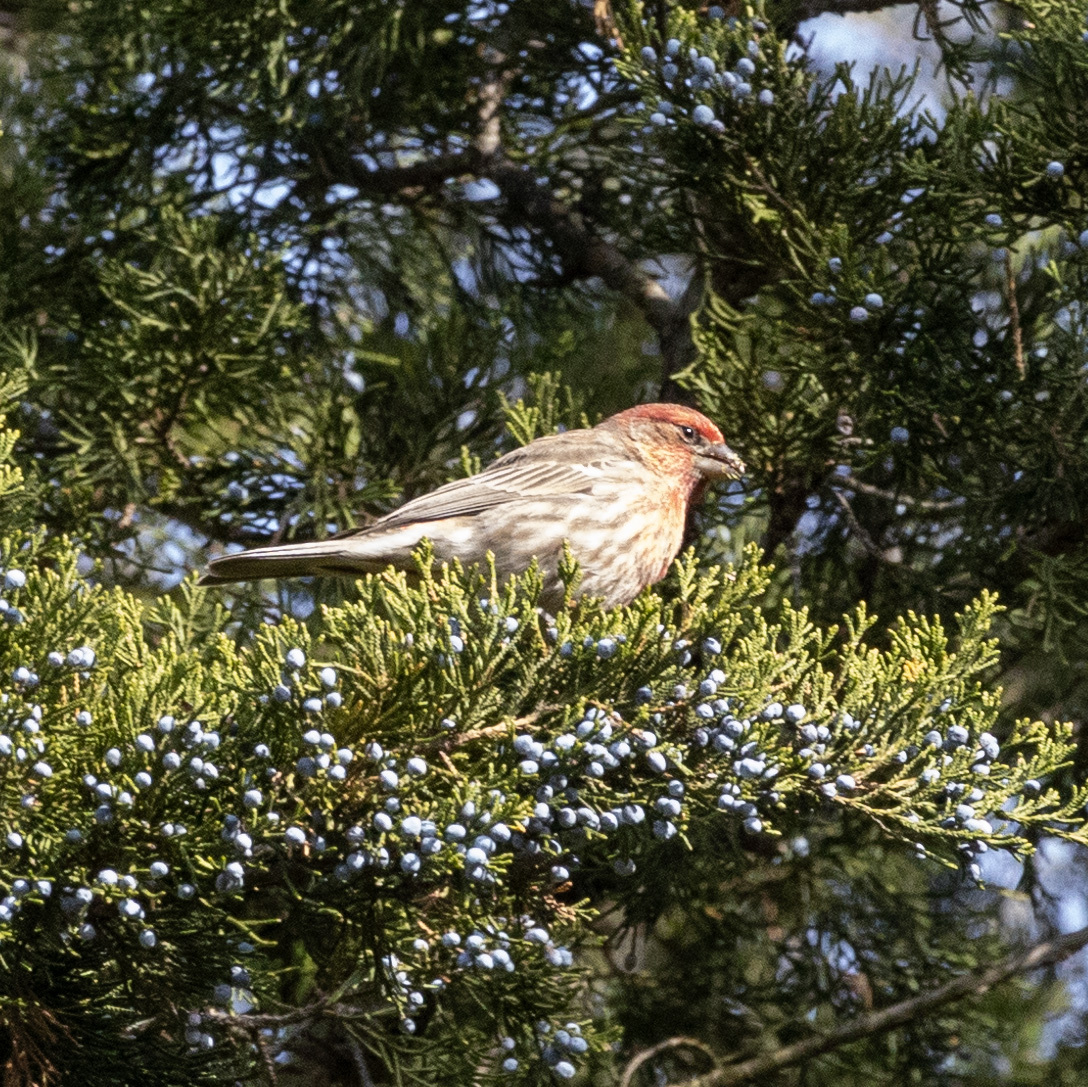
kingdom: Animalia
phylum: Chordata
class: Aves
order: Passeriformes
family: Fringillidae
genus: Haemorhous
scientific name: Haemorhous mexicanus
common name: House finch
